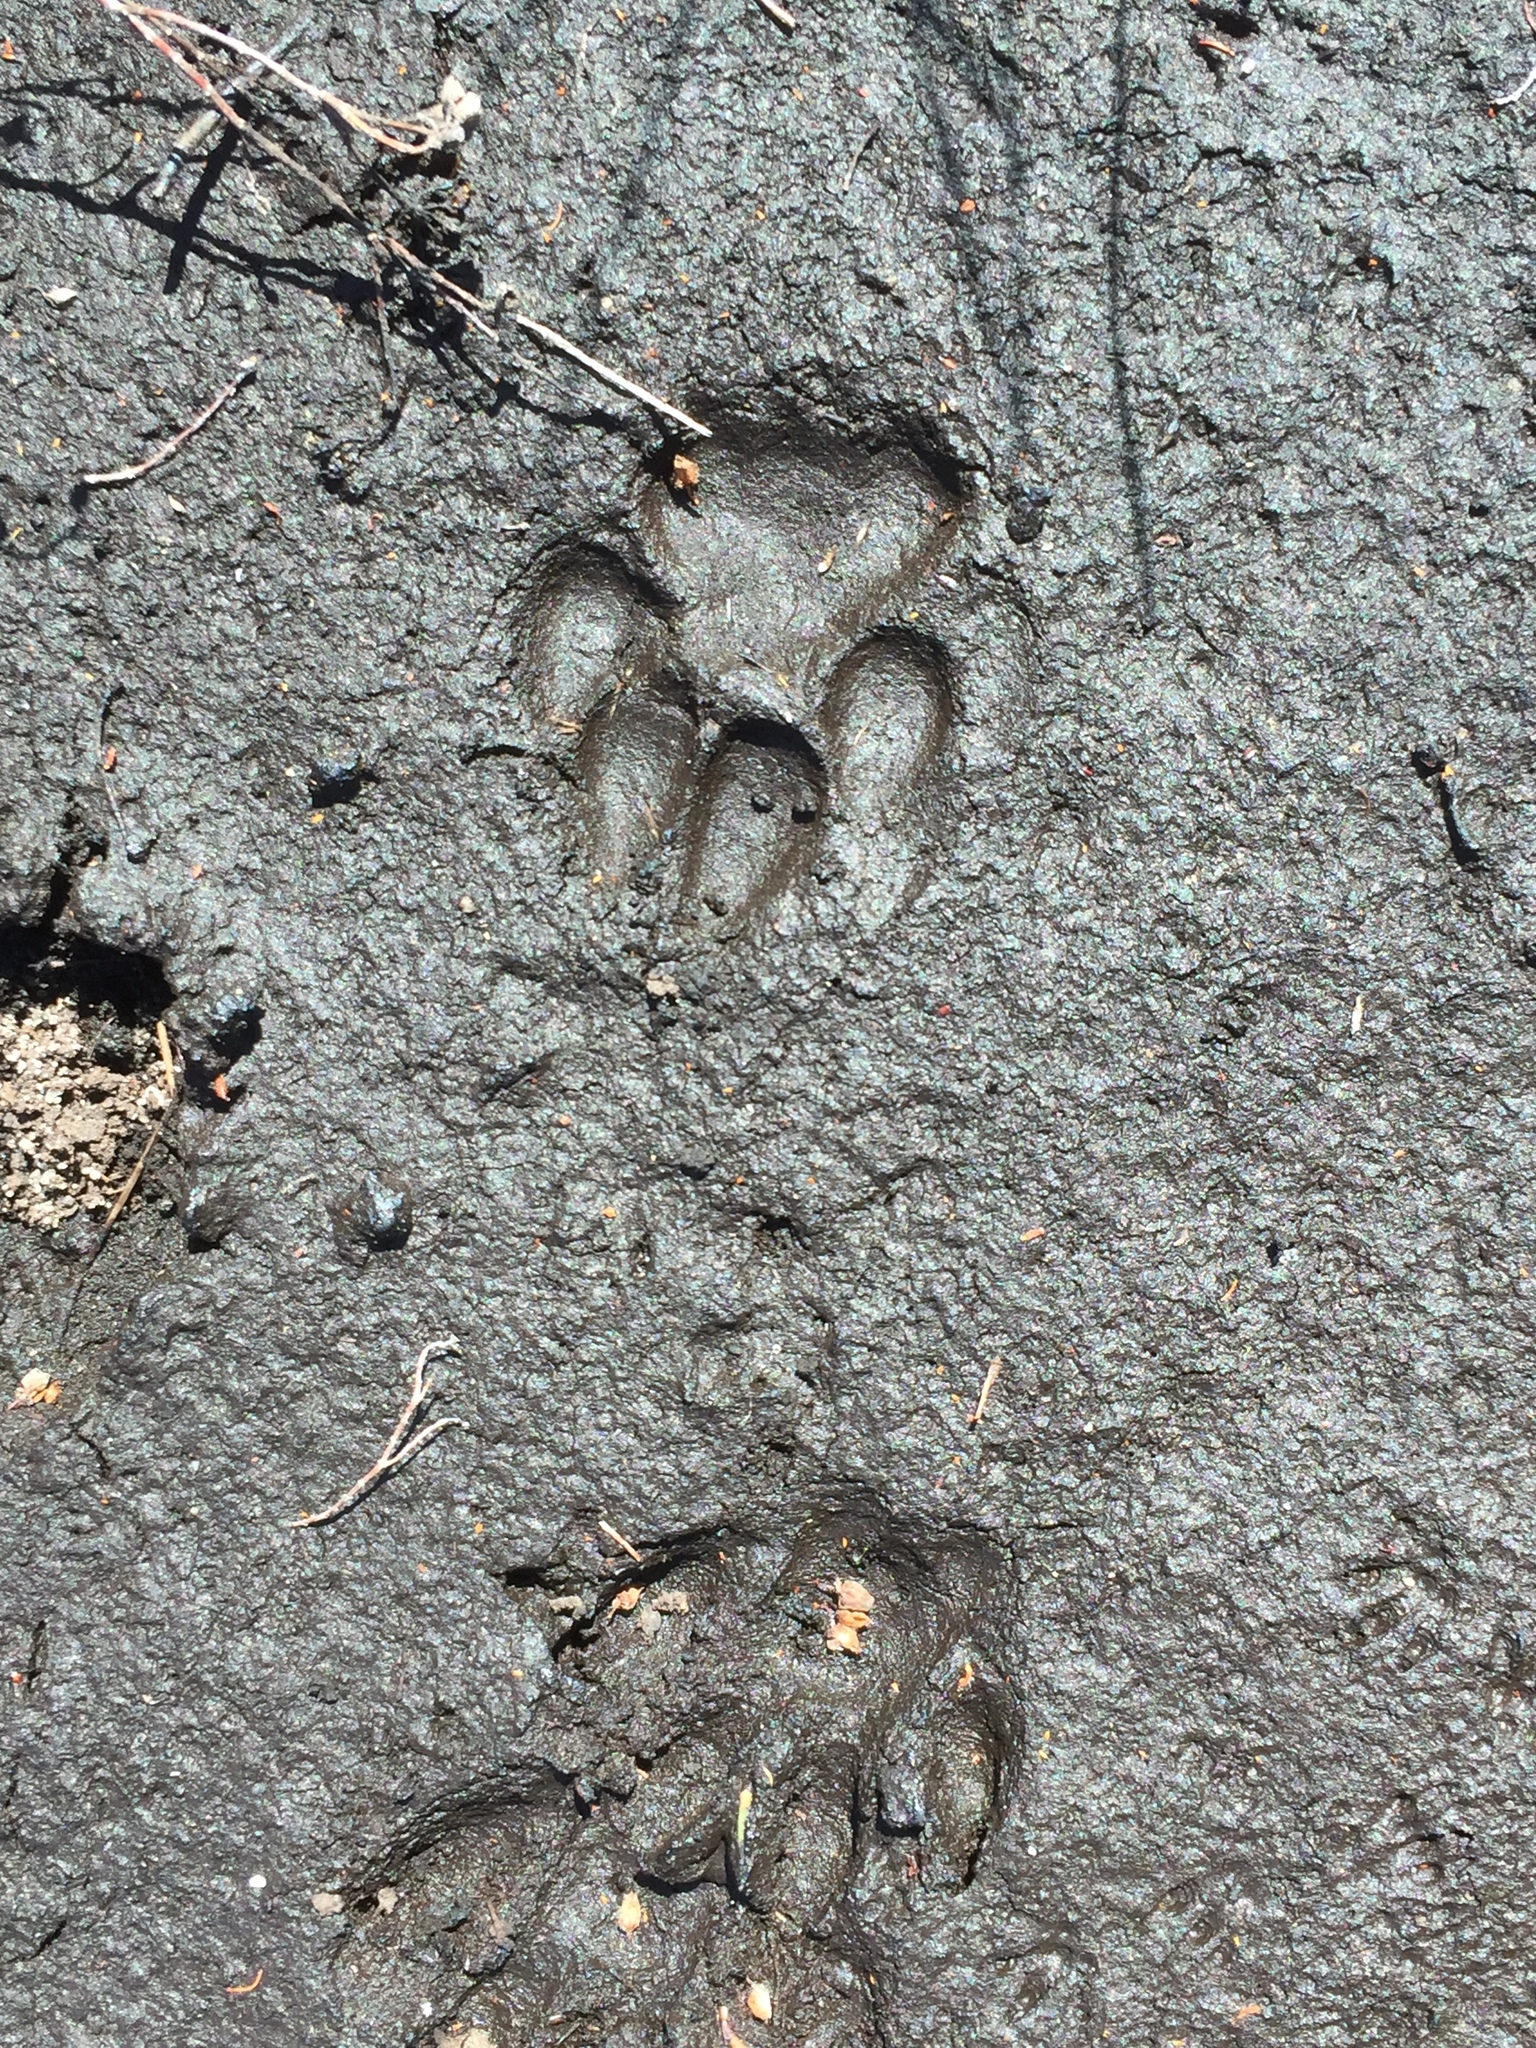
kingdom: Animalia
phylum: Chordata
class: Mammalia
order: Carnivora
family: Herpestidae
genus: Galerella
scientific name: Galerella pulverulenta
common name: Cape gray mongoose
